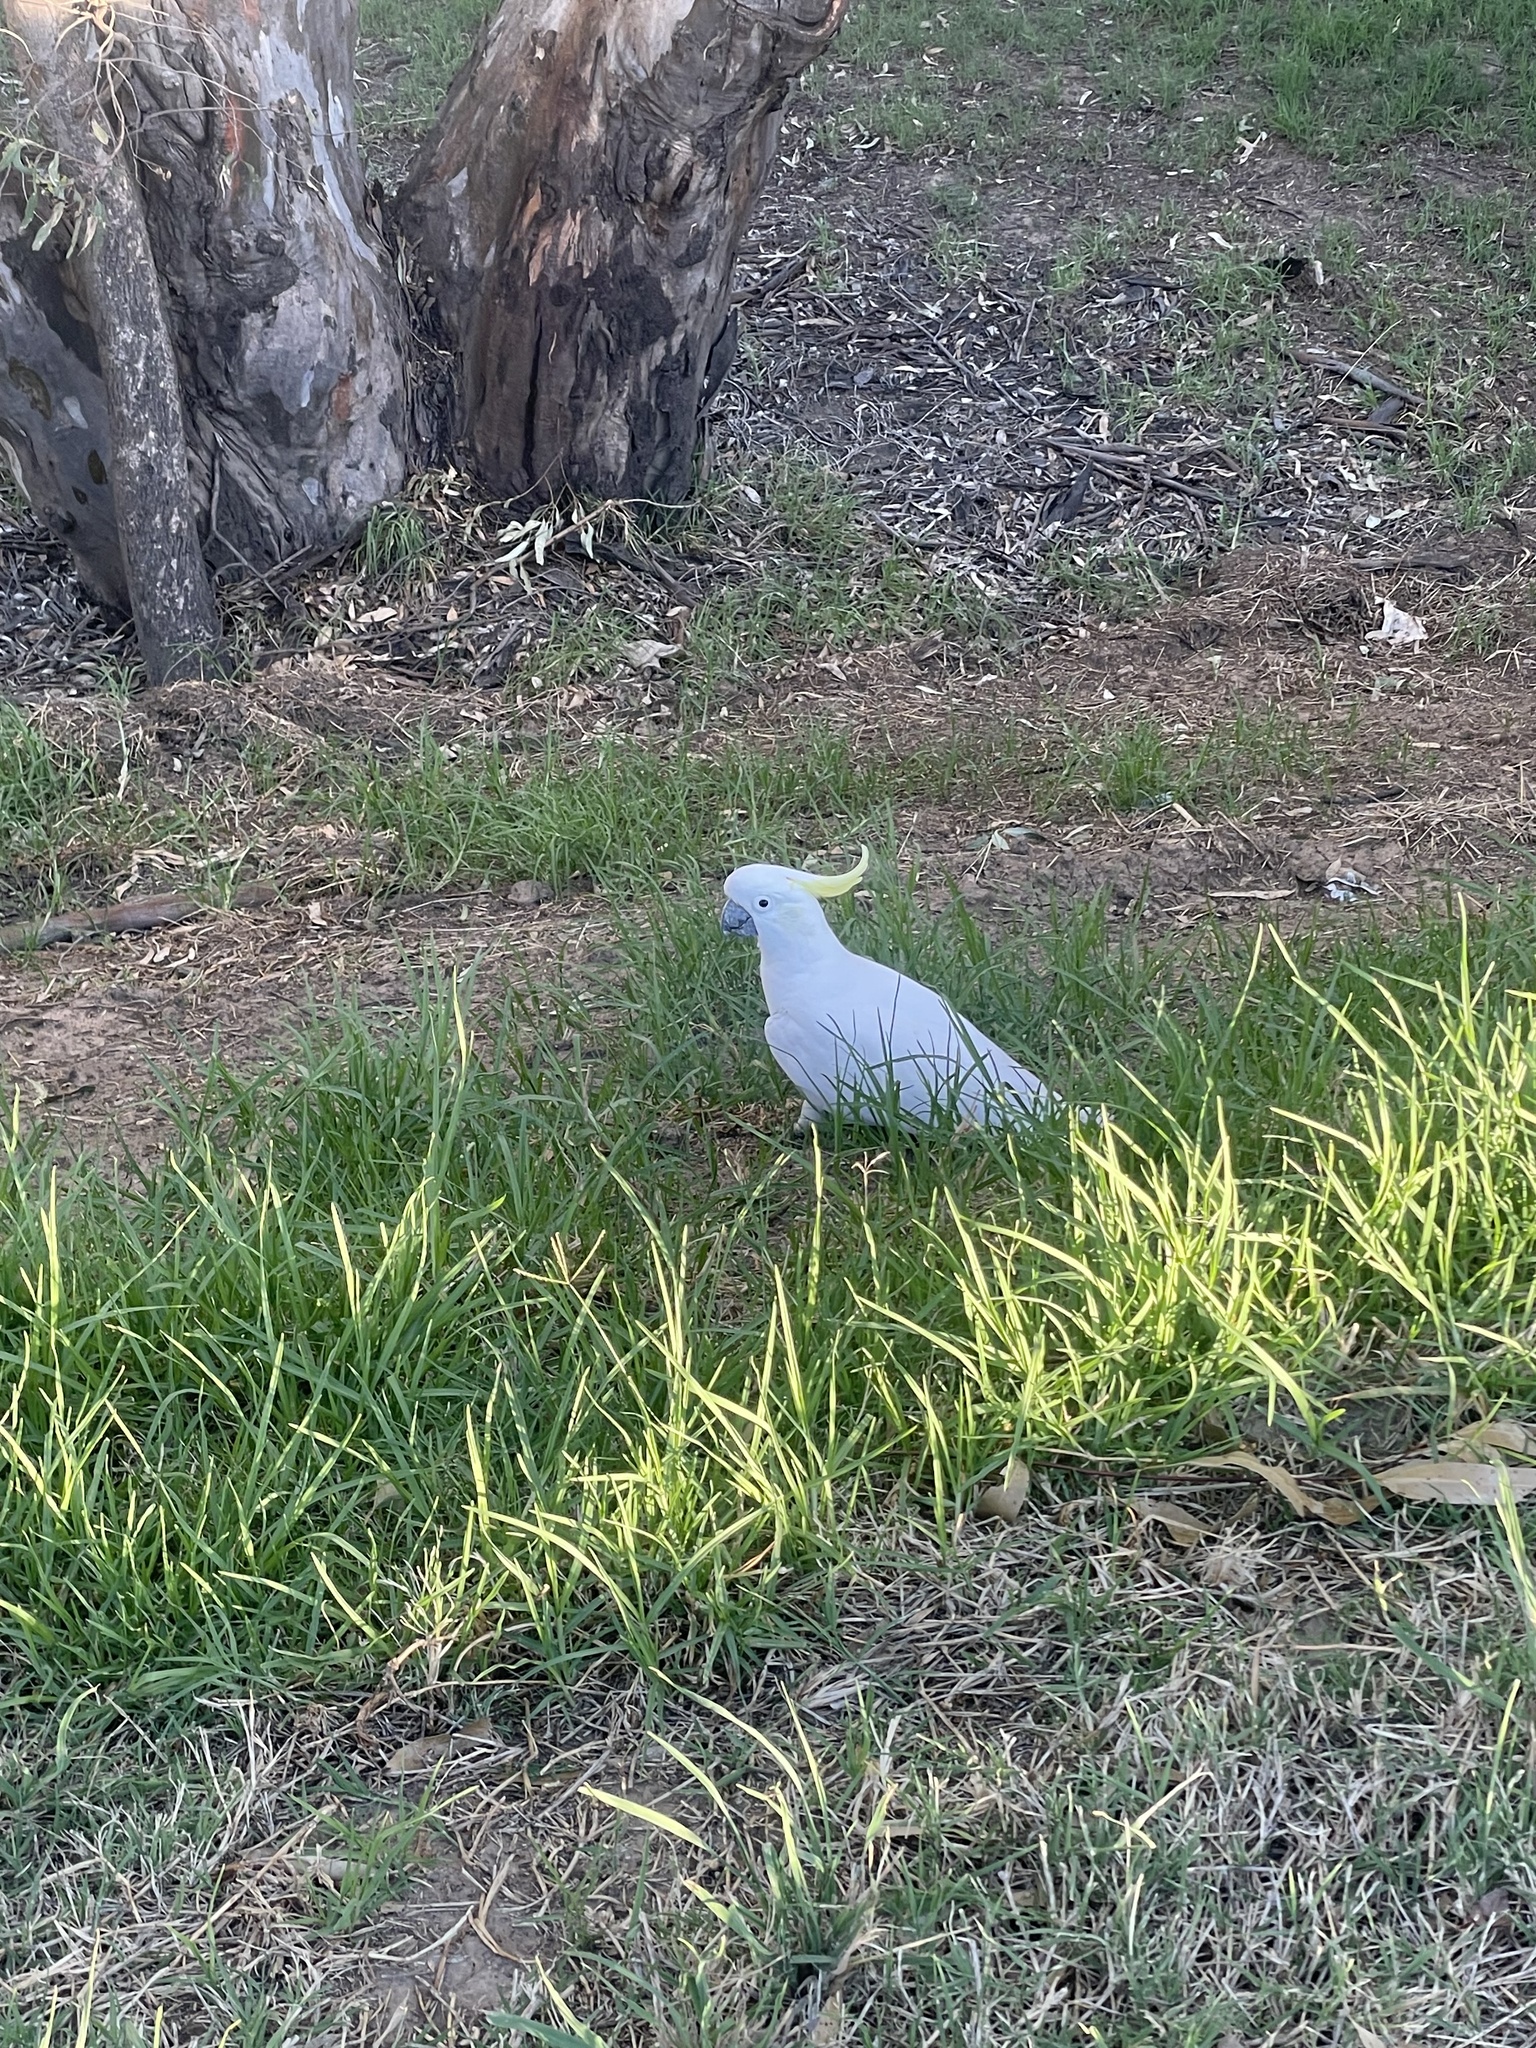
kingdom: Animalia
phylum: Chordata
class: Aves
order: Psittaciformes
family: Psittacidae
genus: Cacatua
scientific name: Cacatua galerita
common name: Sulphur-crested cockatoo
